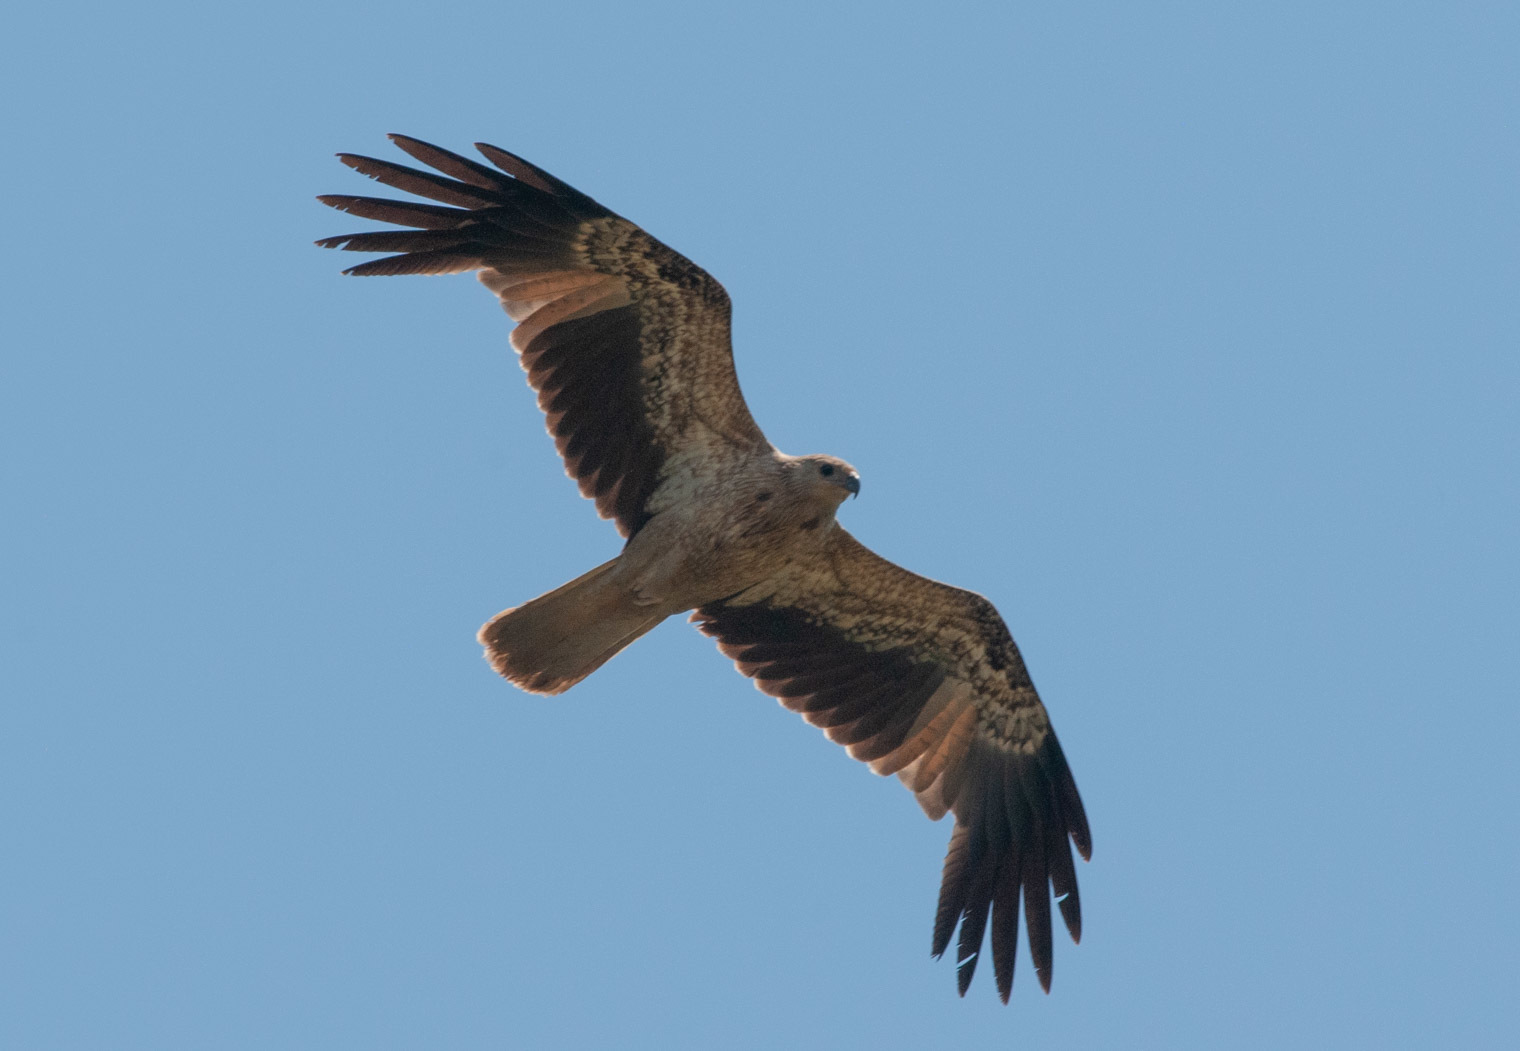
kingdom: Animalia
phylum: Chordata
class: Aves
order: Accipitriformes
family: Accipitridae
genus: Haliastur
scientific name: Haliastur sphenurus
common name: Whistling kite
